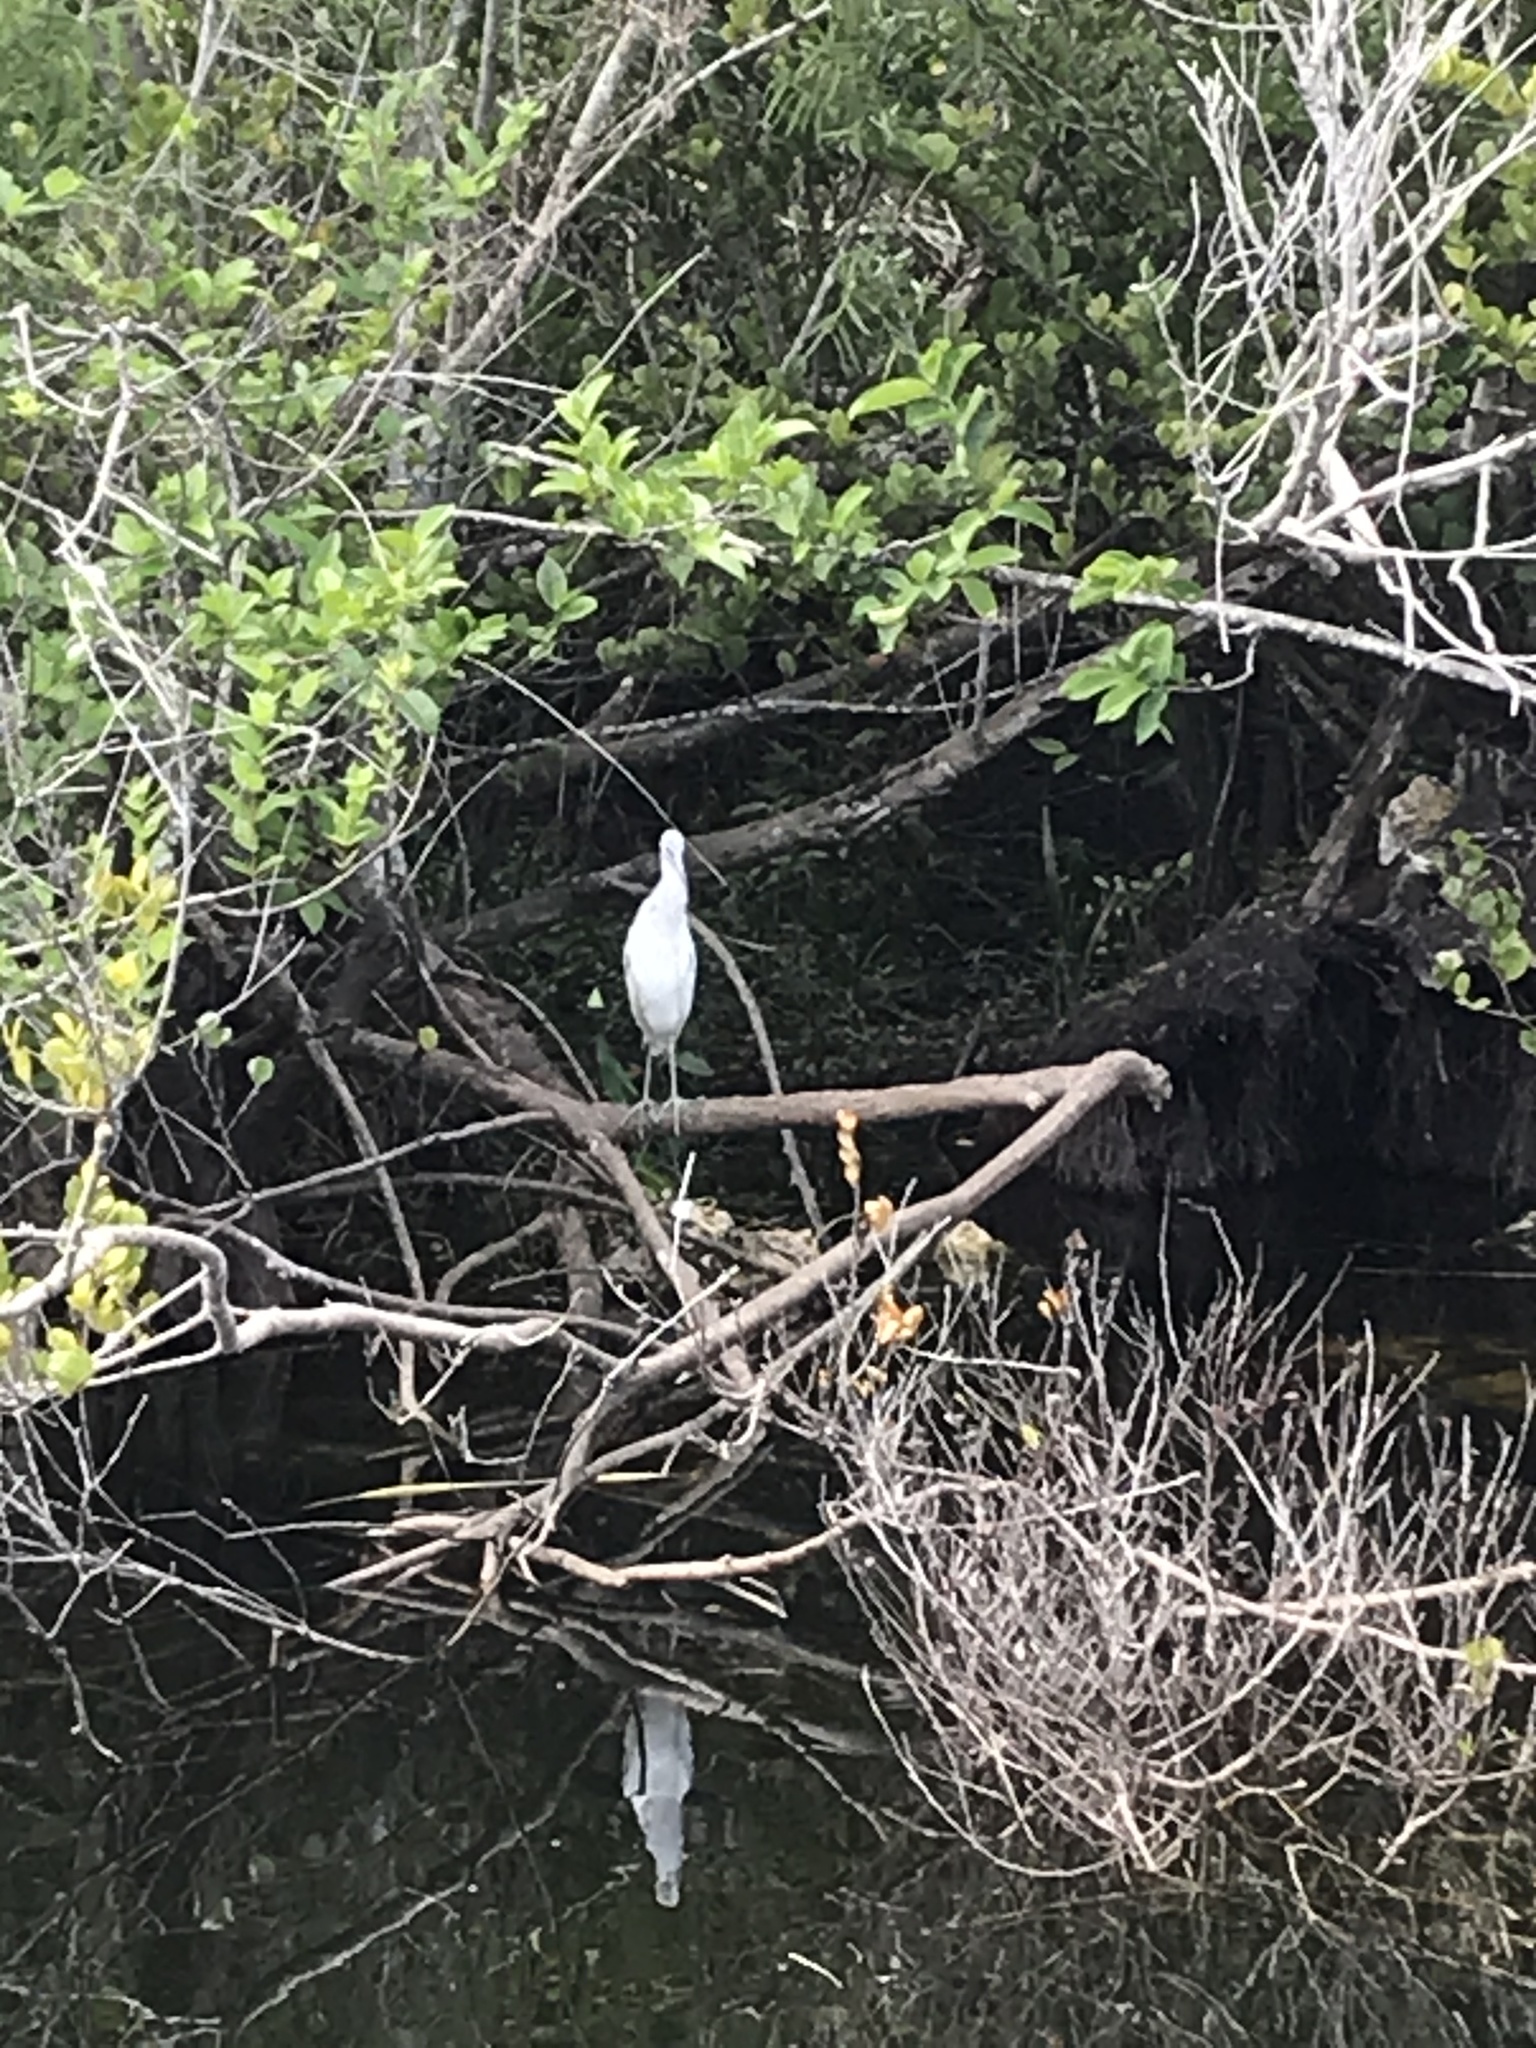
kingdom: Animalia
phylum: Chordata
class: Aves
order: Pelecaniformes
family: Ardeidae
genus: Egretta
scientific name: Egretta caerulea
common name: Little blue heron
